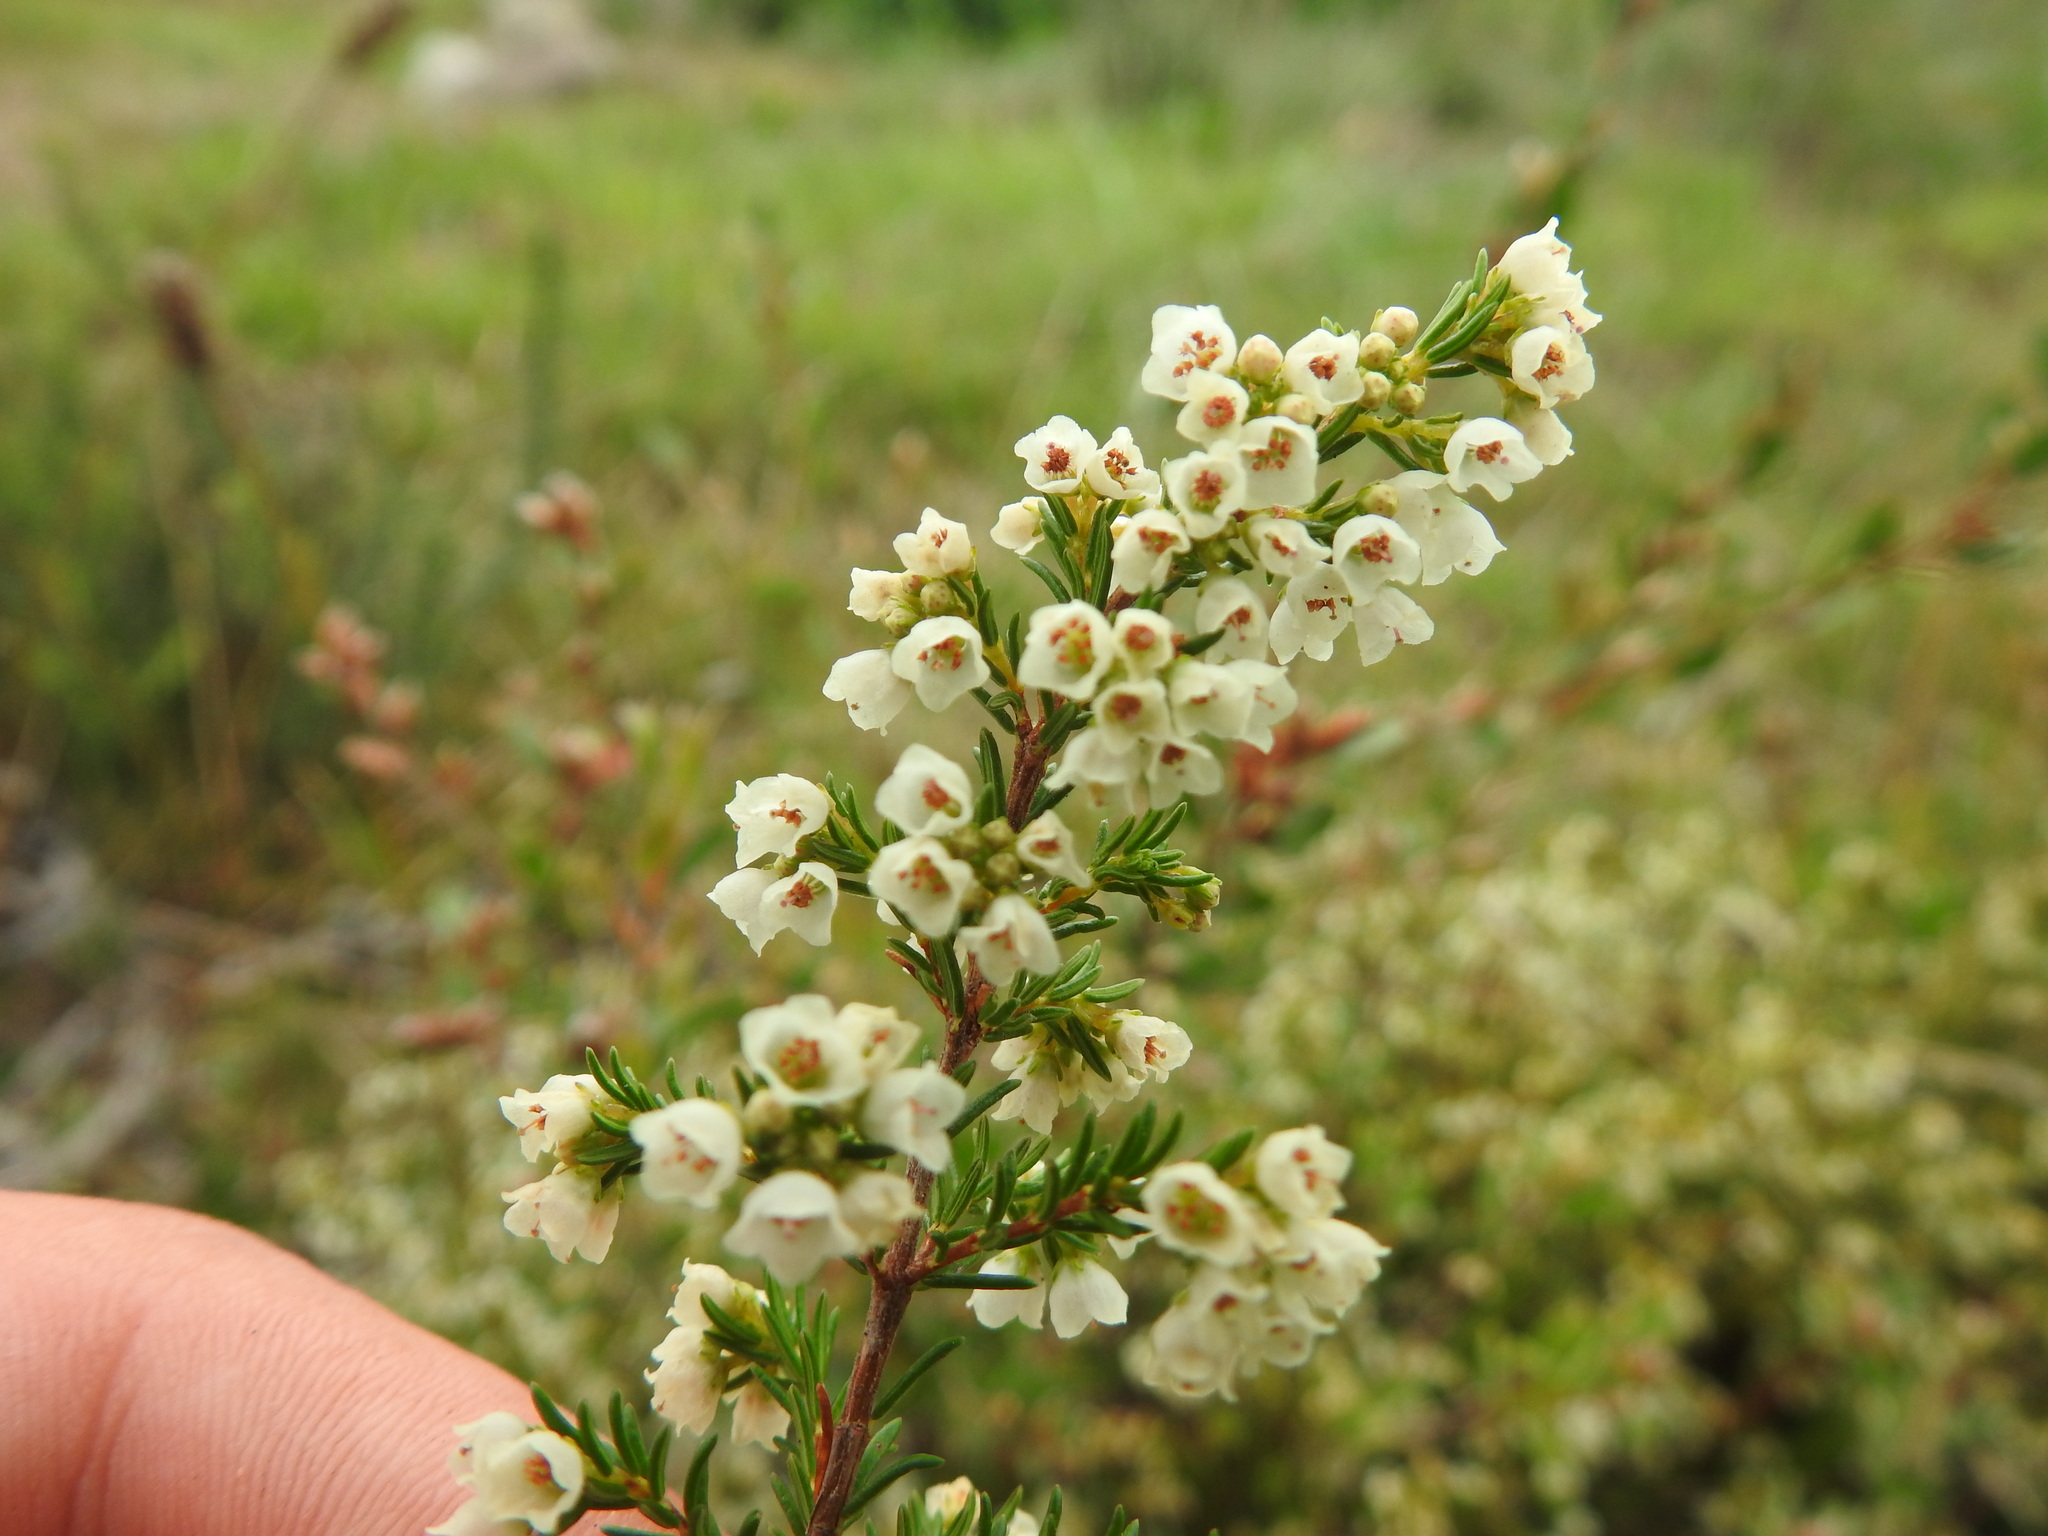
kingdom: Plantae
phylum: Tracheophyta
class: Magnoliopsida
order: Sapindales
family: Rutaceae
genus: Diosma
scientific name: Diosma hirsuta
